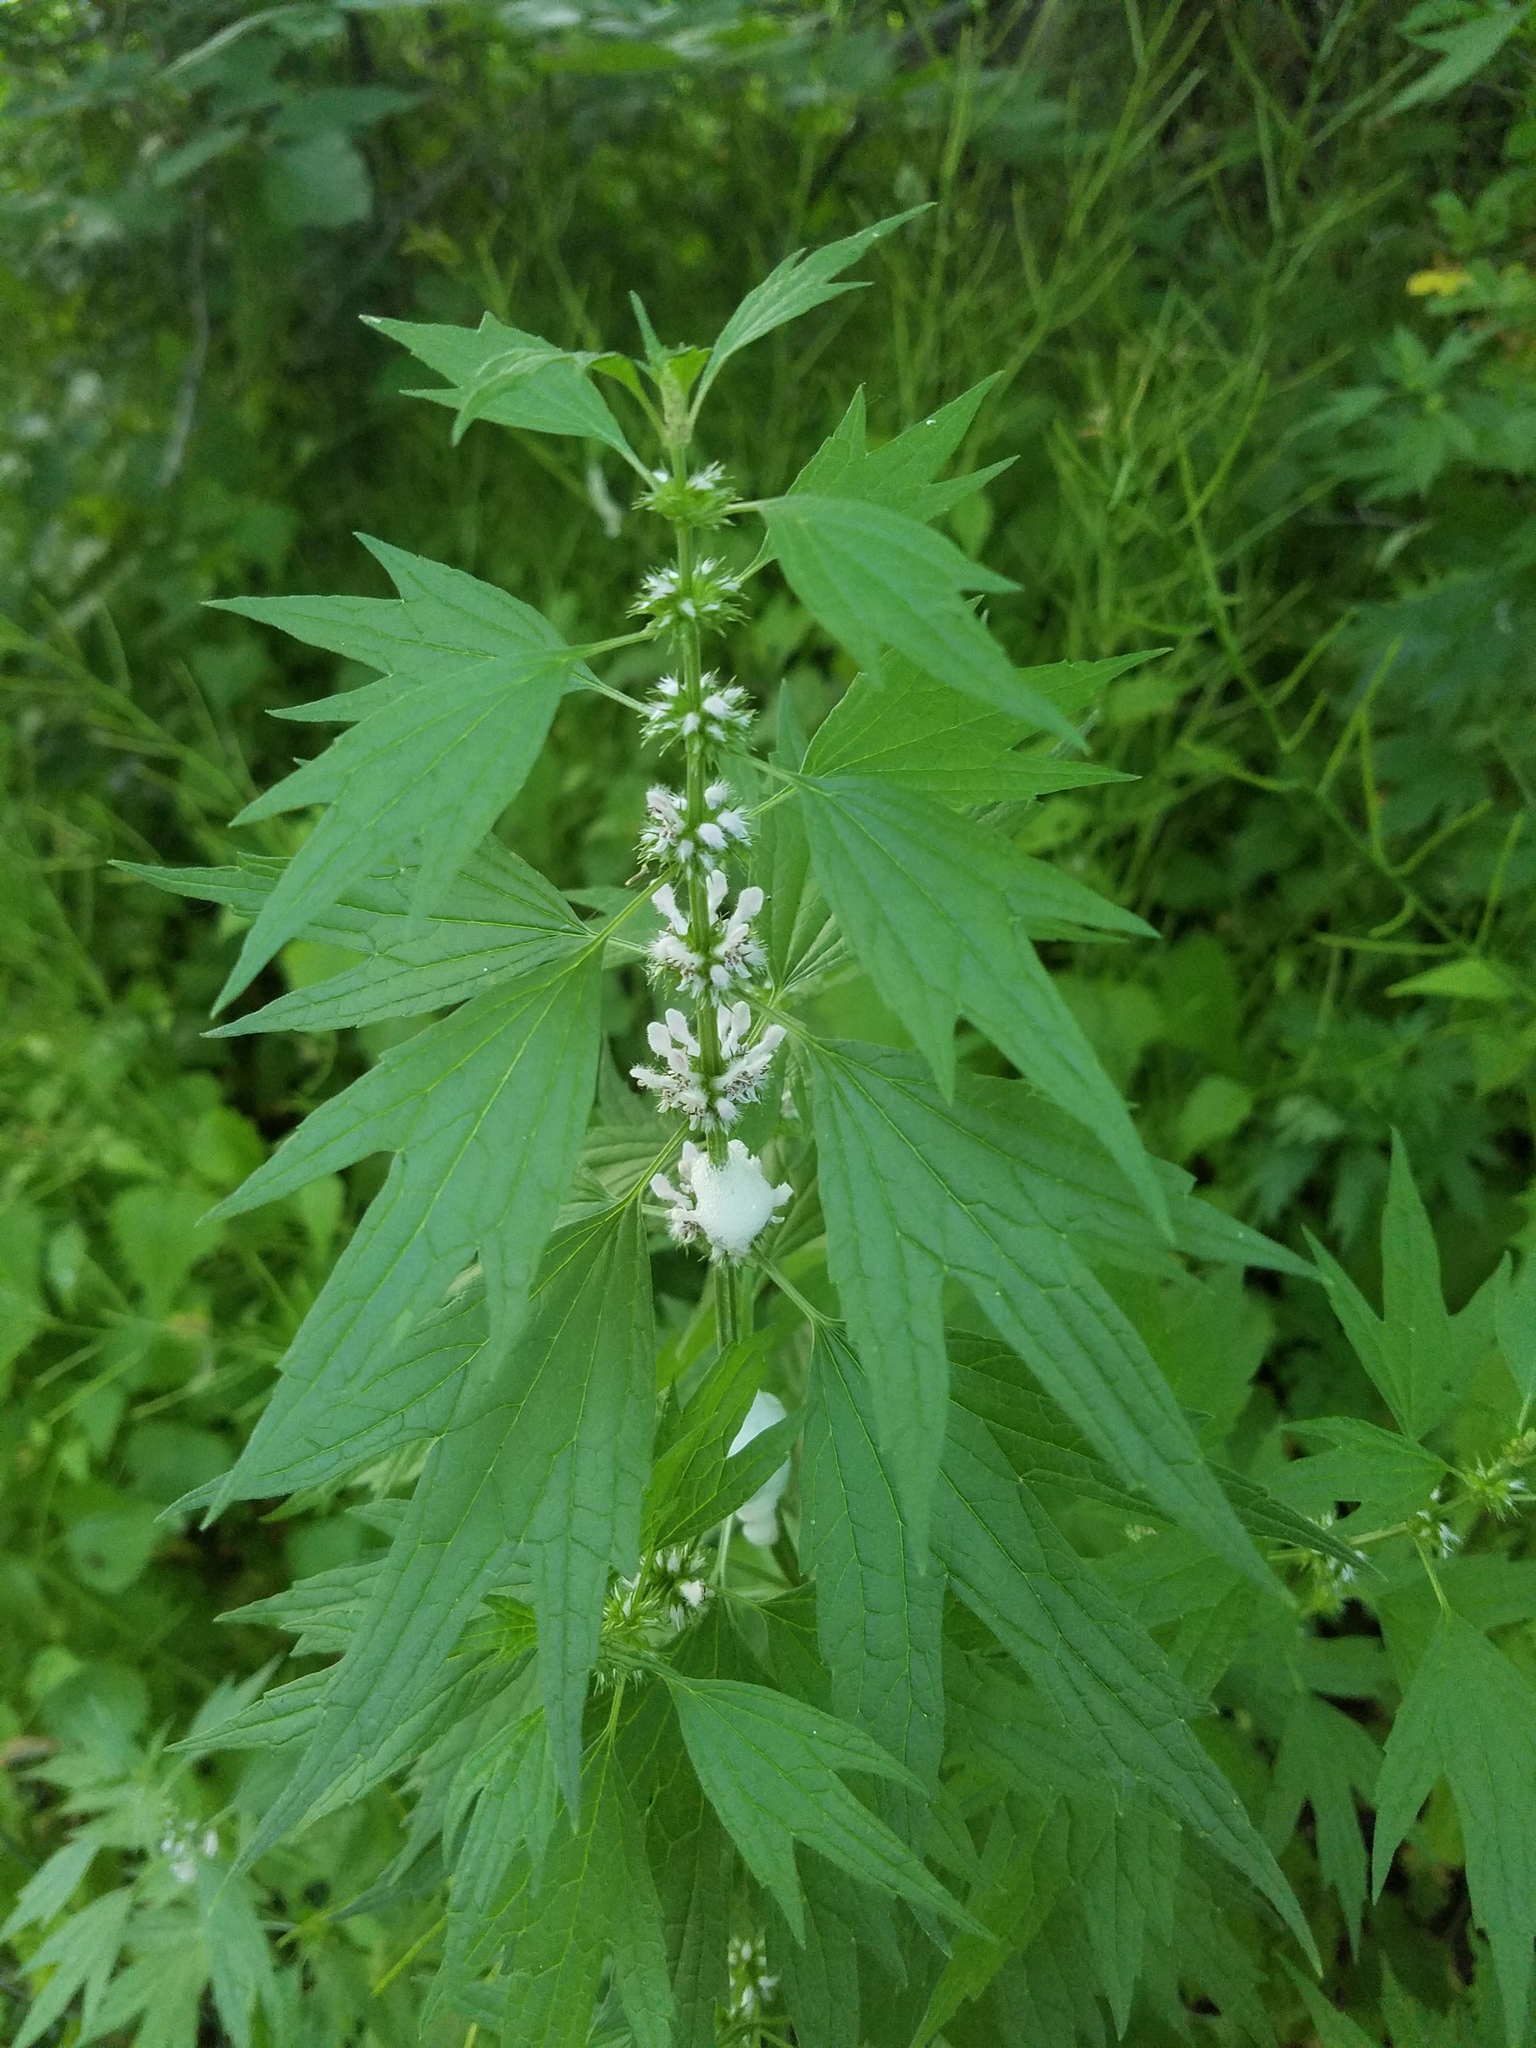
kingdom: Plantae
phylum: Tracheophyta
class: Magnoliopsida
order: Lamiales
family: Lamiaceae
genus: Leonurus
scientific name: Leonurus cardiaca
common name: Motherwort
